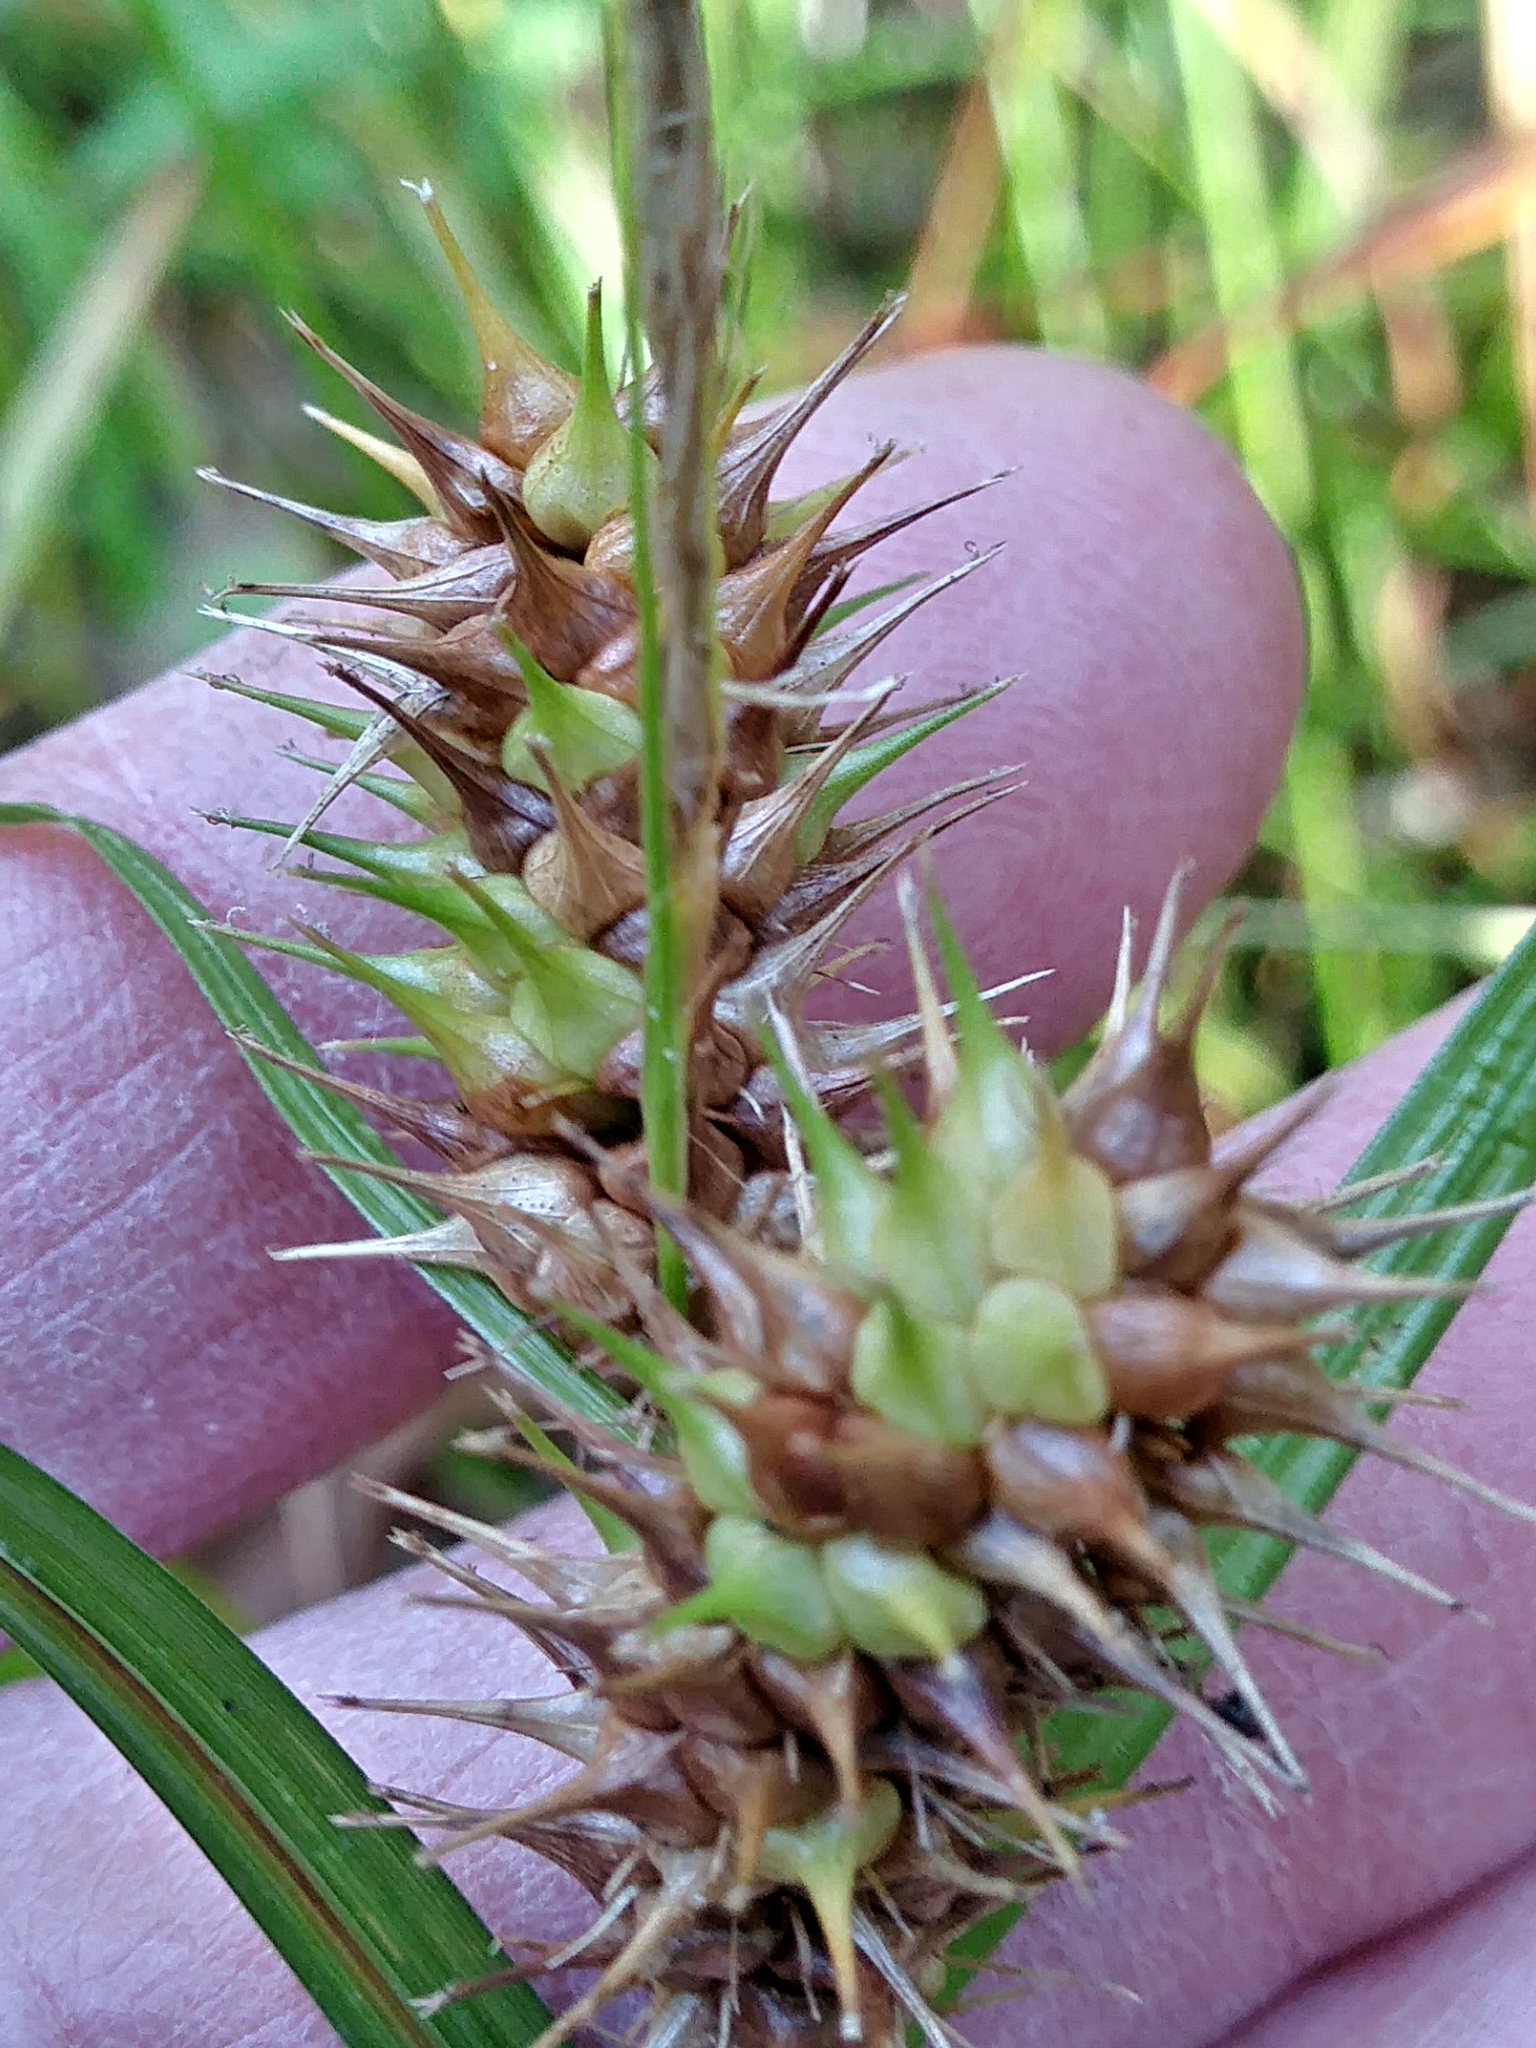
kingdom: Plantae
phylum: Tracheophyta
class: Liliopsida
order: Poales
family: Cyperaceae
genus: Carex
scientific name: Carex lurida
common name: Sallow sedge
